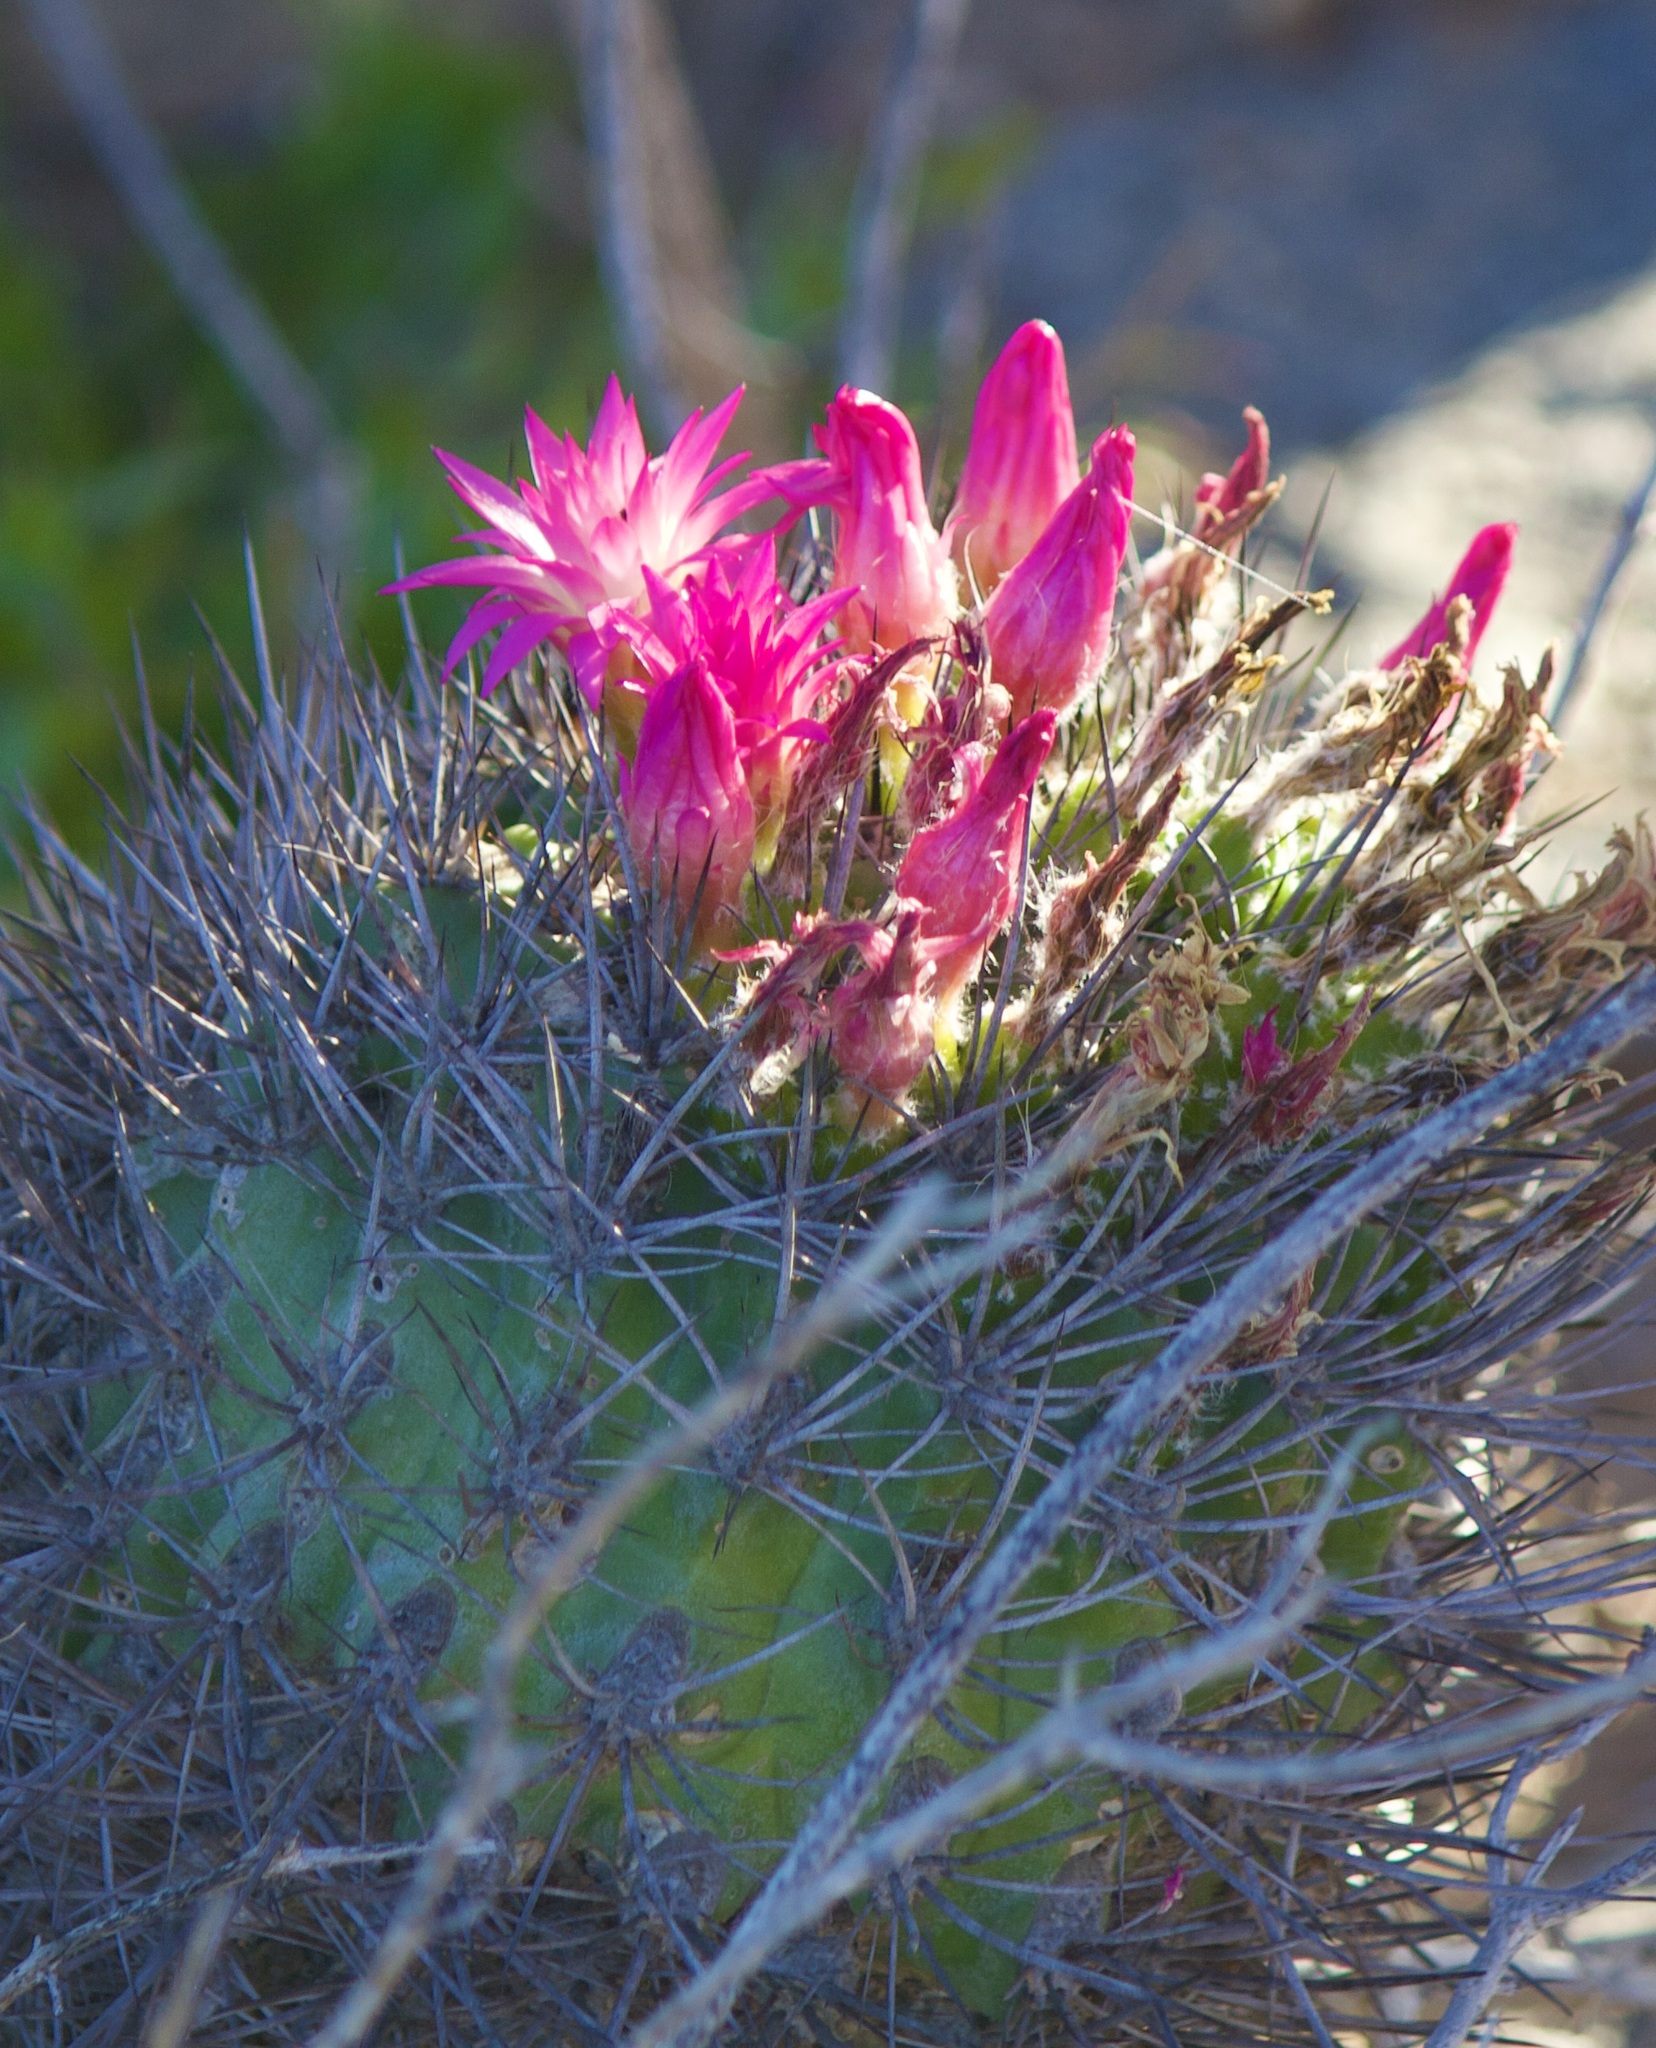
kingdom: Plantae
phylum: Tracheophyta
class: Magnoliopsida
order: Caryophyllales
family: Cactaceae
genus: Eriosyce
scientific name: Eriosyce subgibbosa
